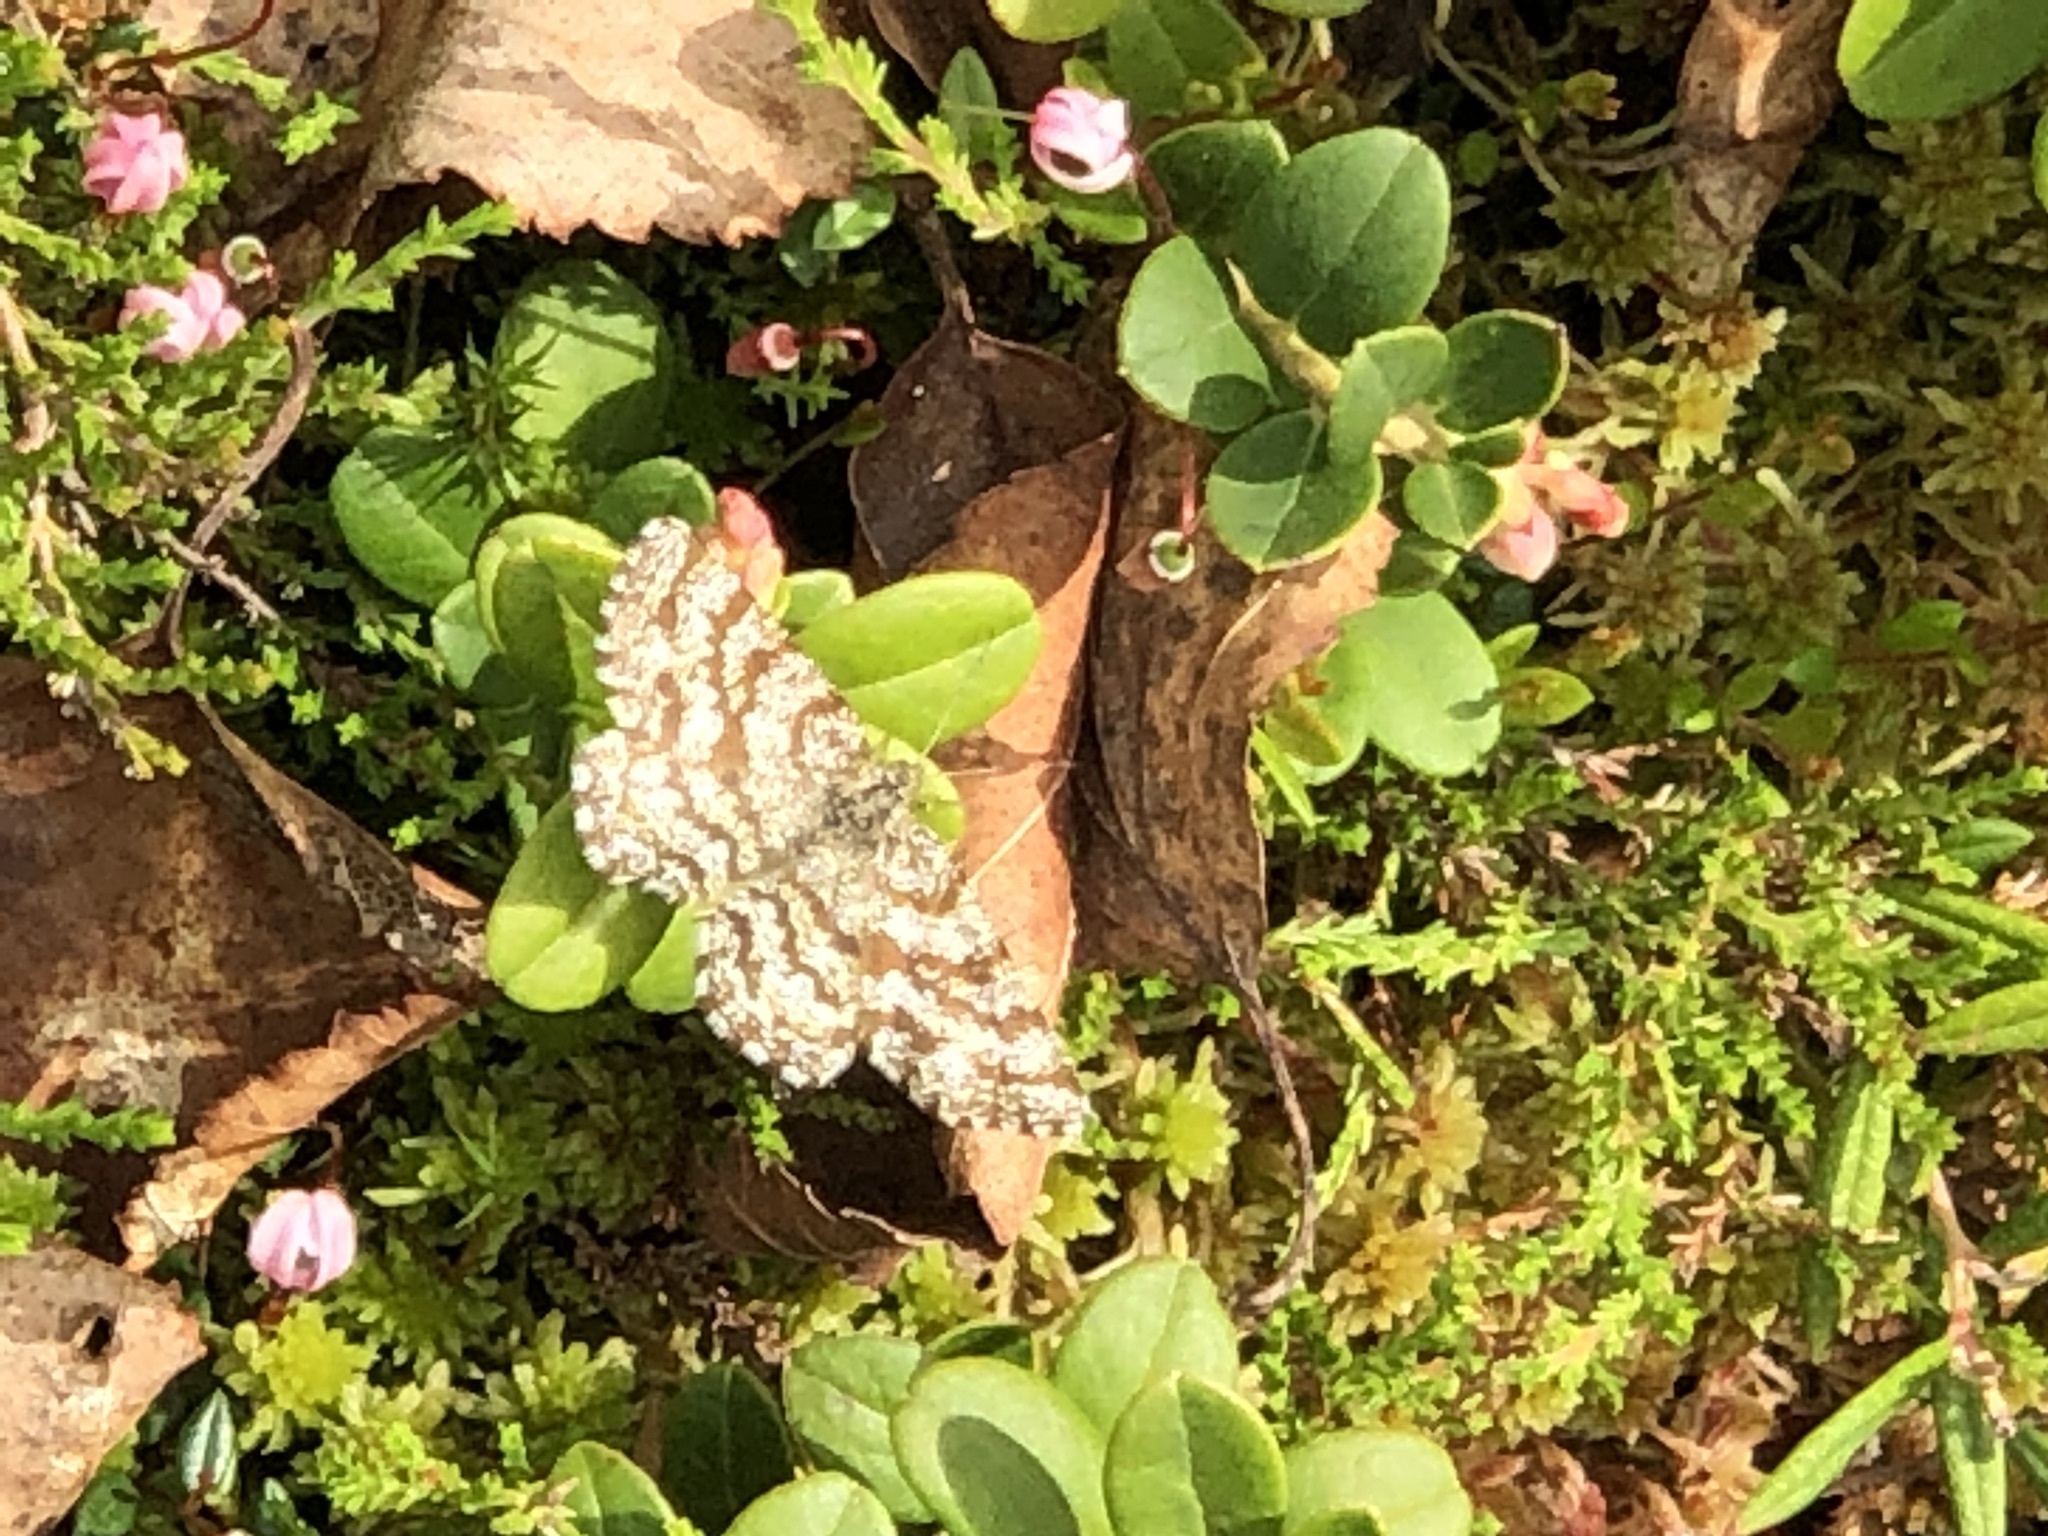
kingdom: Animalia
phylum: Arthropoda
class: Insecta
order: Lepidoptera
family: Geometridae
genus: Ematurga
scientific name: Ematurga atomaria
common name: Common heath
